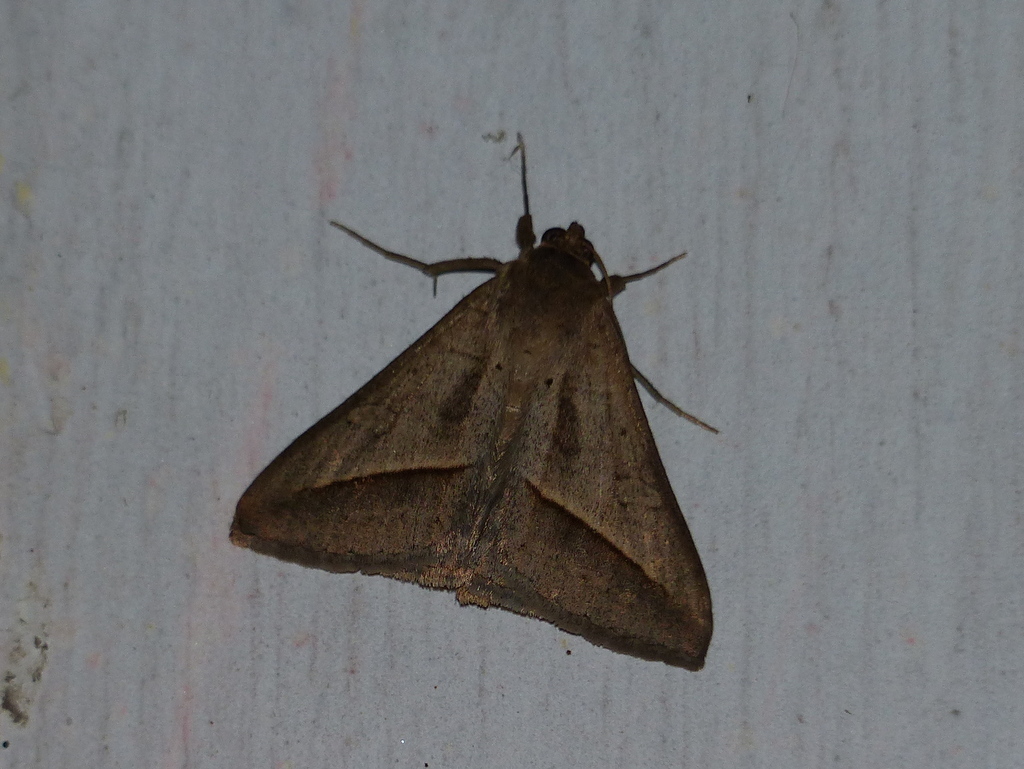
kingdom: Animalia
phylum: Arthropoda
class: Insecta
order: Lepidoptera
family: Erebidae
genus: Mocis
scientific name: Mocis frugalis
